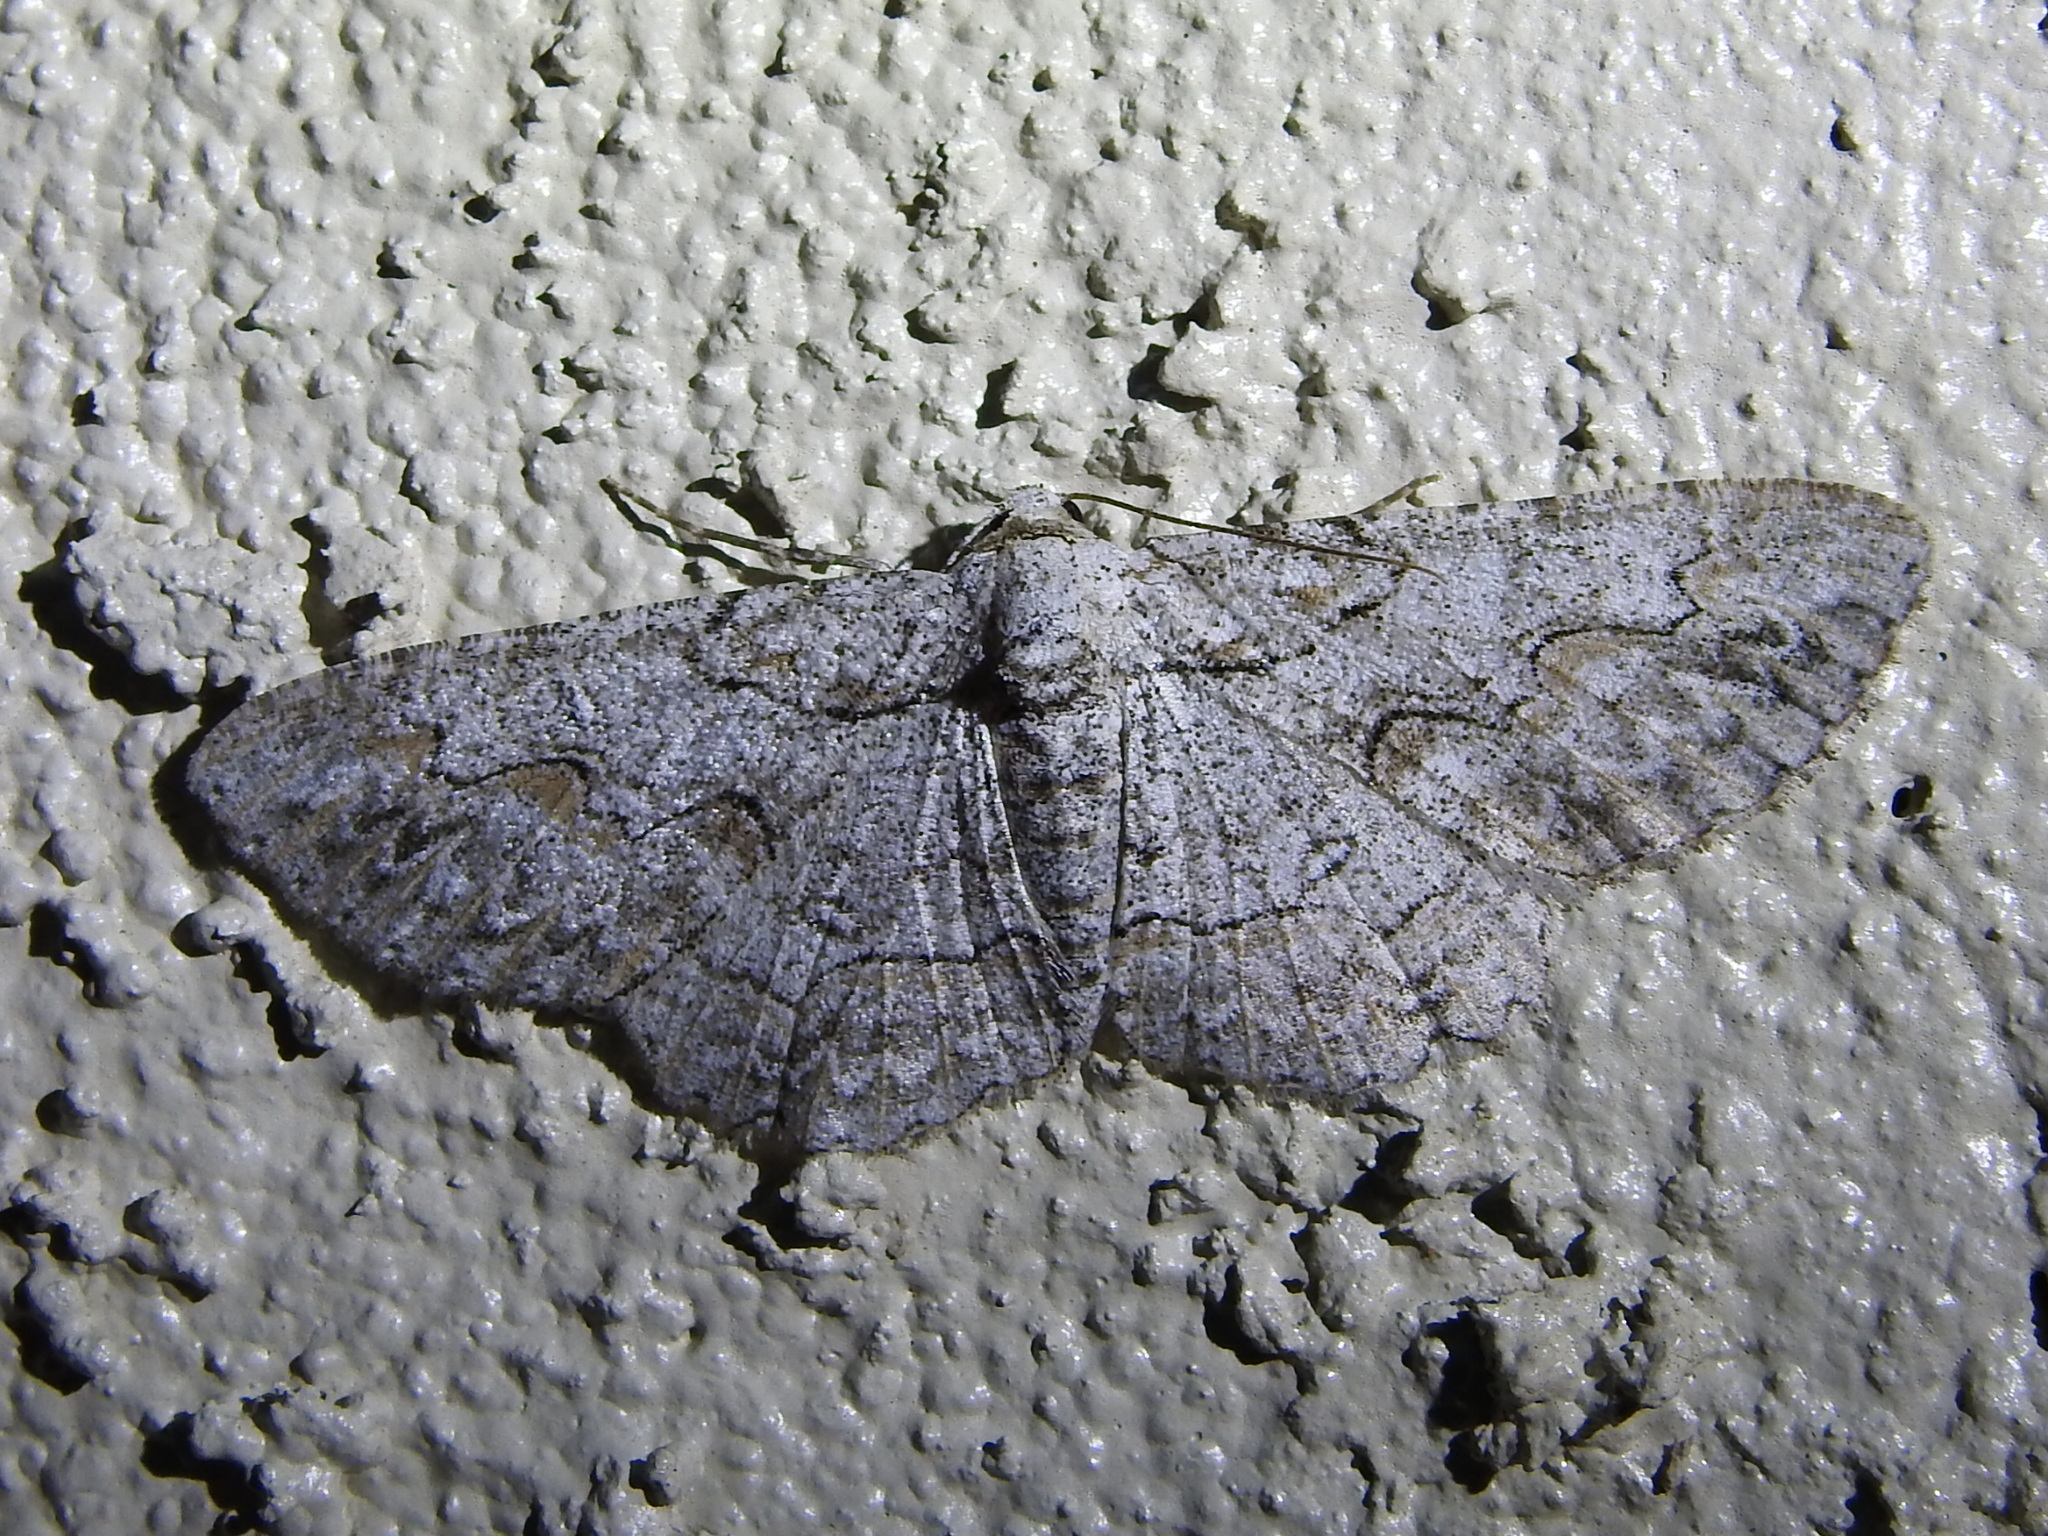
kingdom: Animalia
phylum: Arthropoda
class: Insecta
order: Lepidoptera
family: Geometridae
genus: Iridopsis
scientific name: Iridopsis defectaria
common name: Brown-shaded gray
